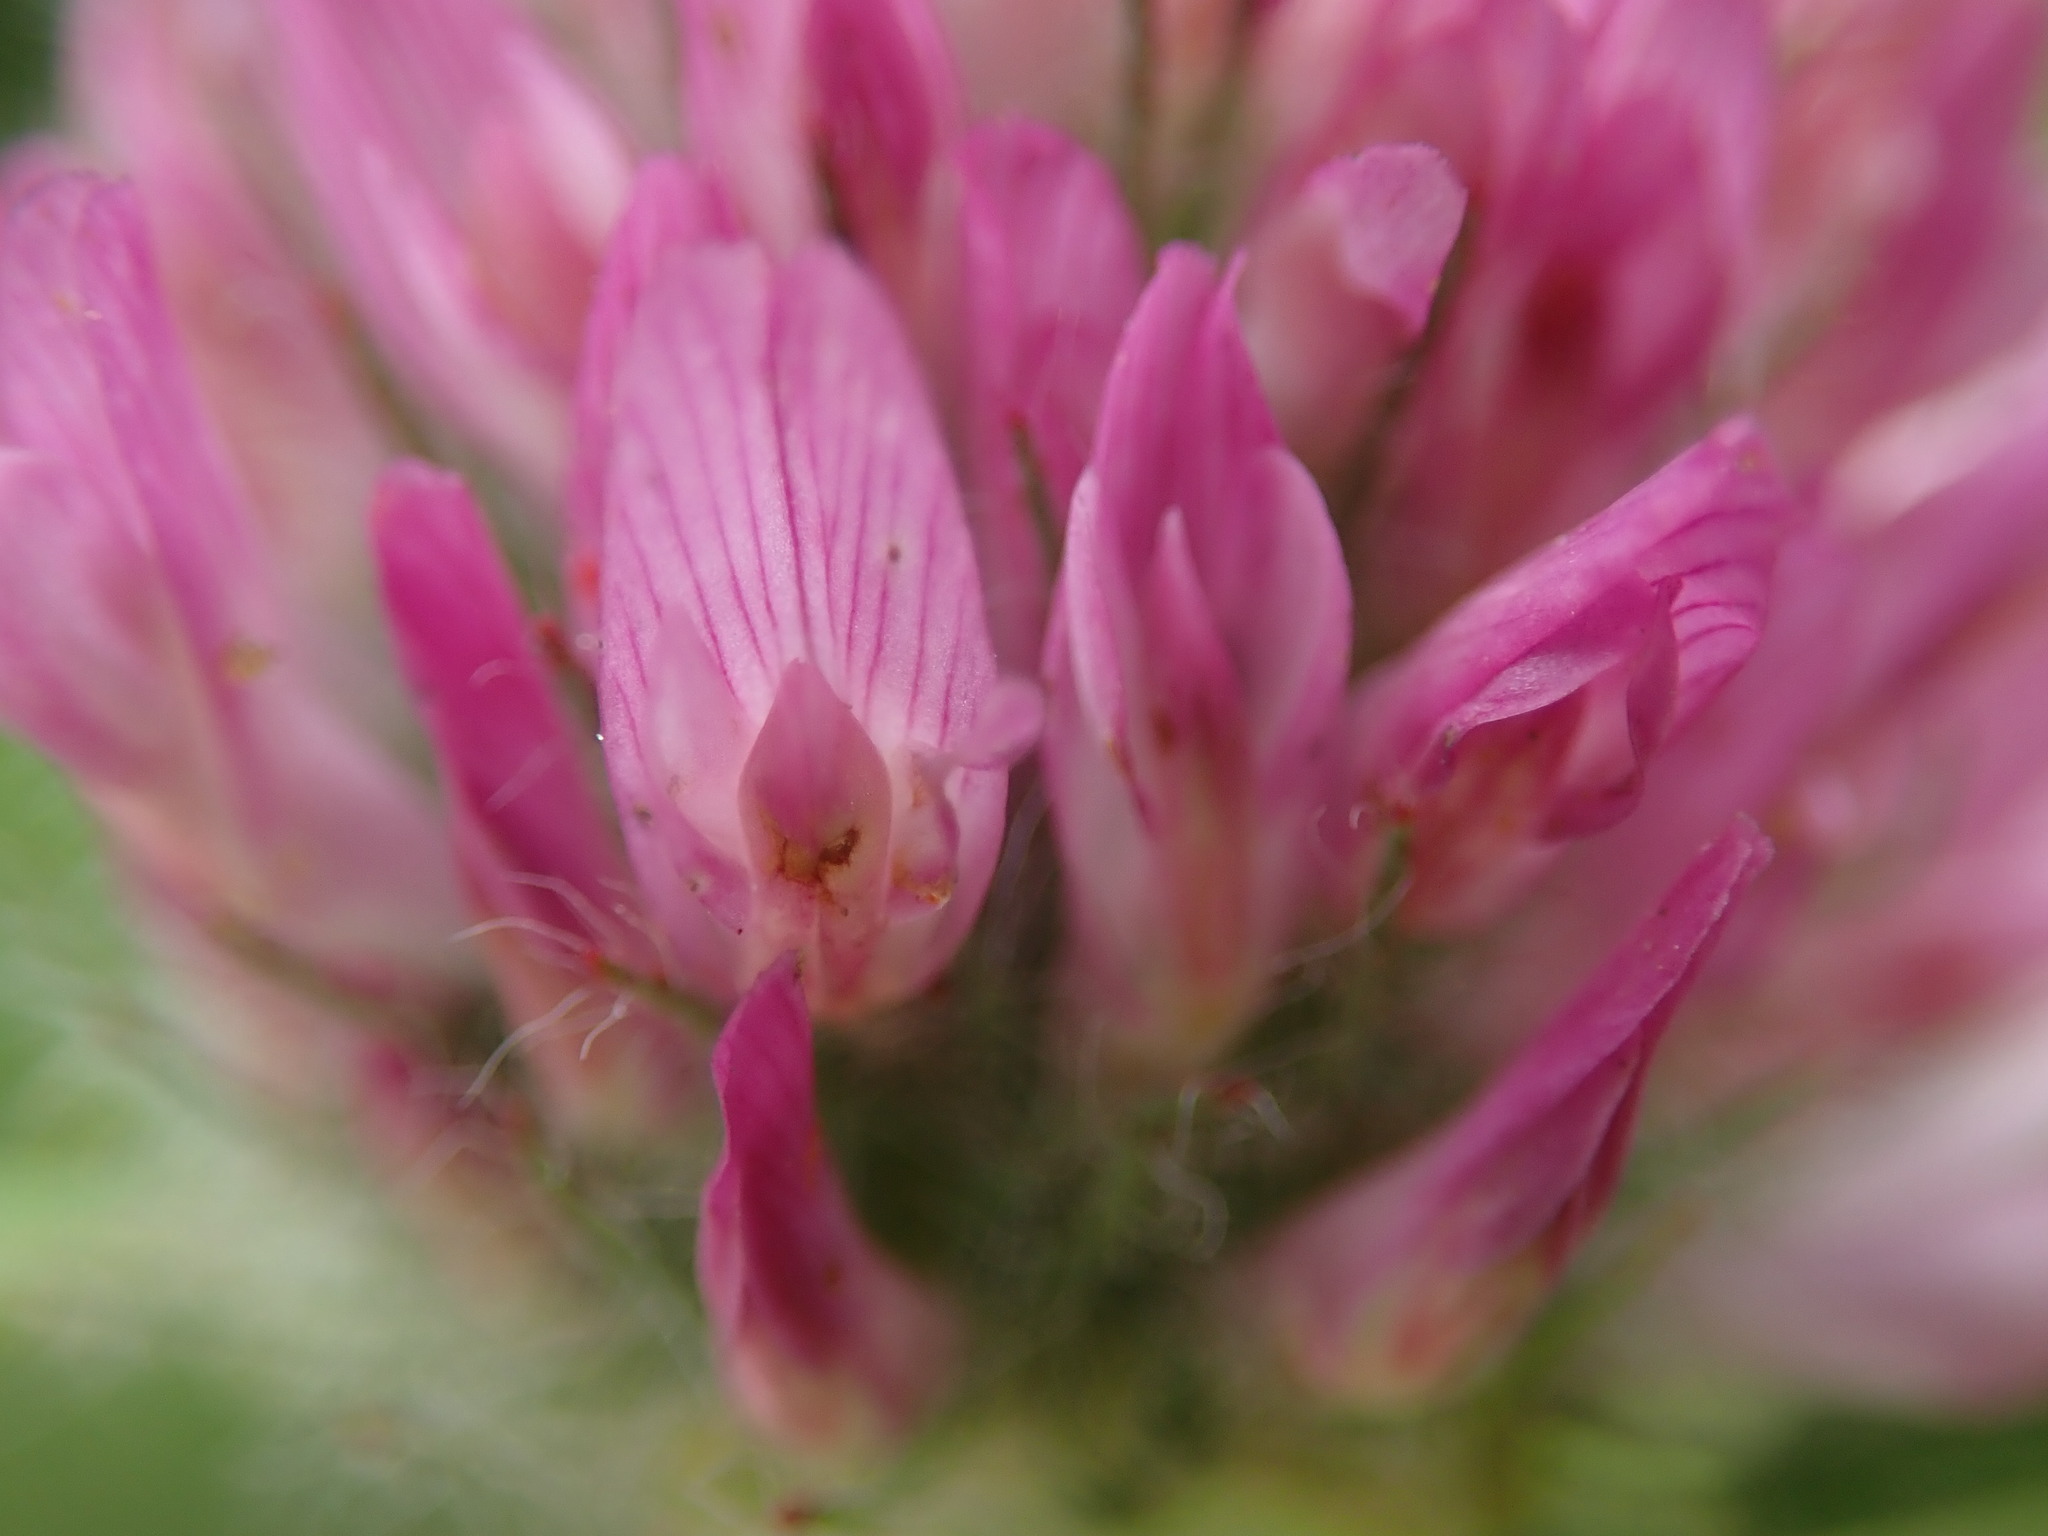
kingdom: Plantae
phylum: Tracheophyta
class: Magnoliopsida
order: Fabales
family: Fabaceae
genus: Trifolium
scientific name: Trifolium pratense
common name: Red clover
